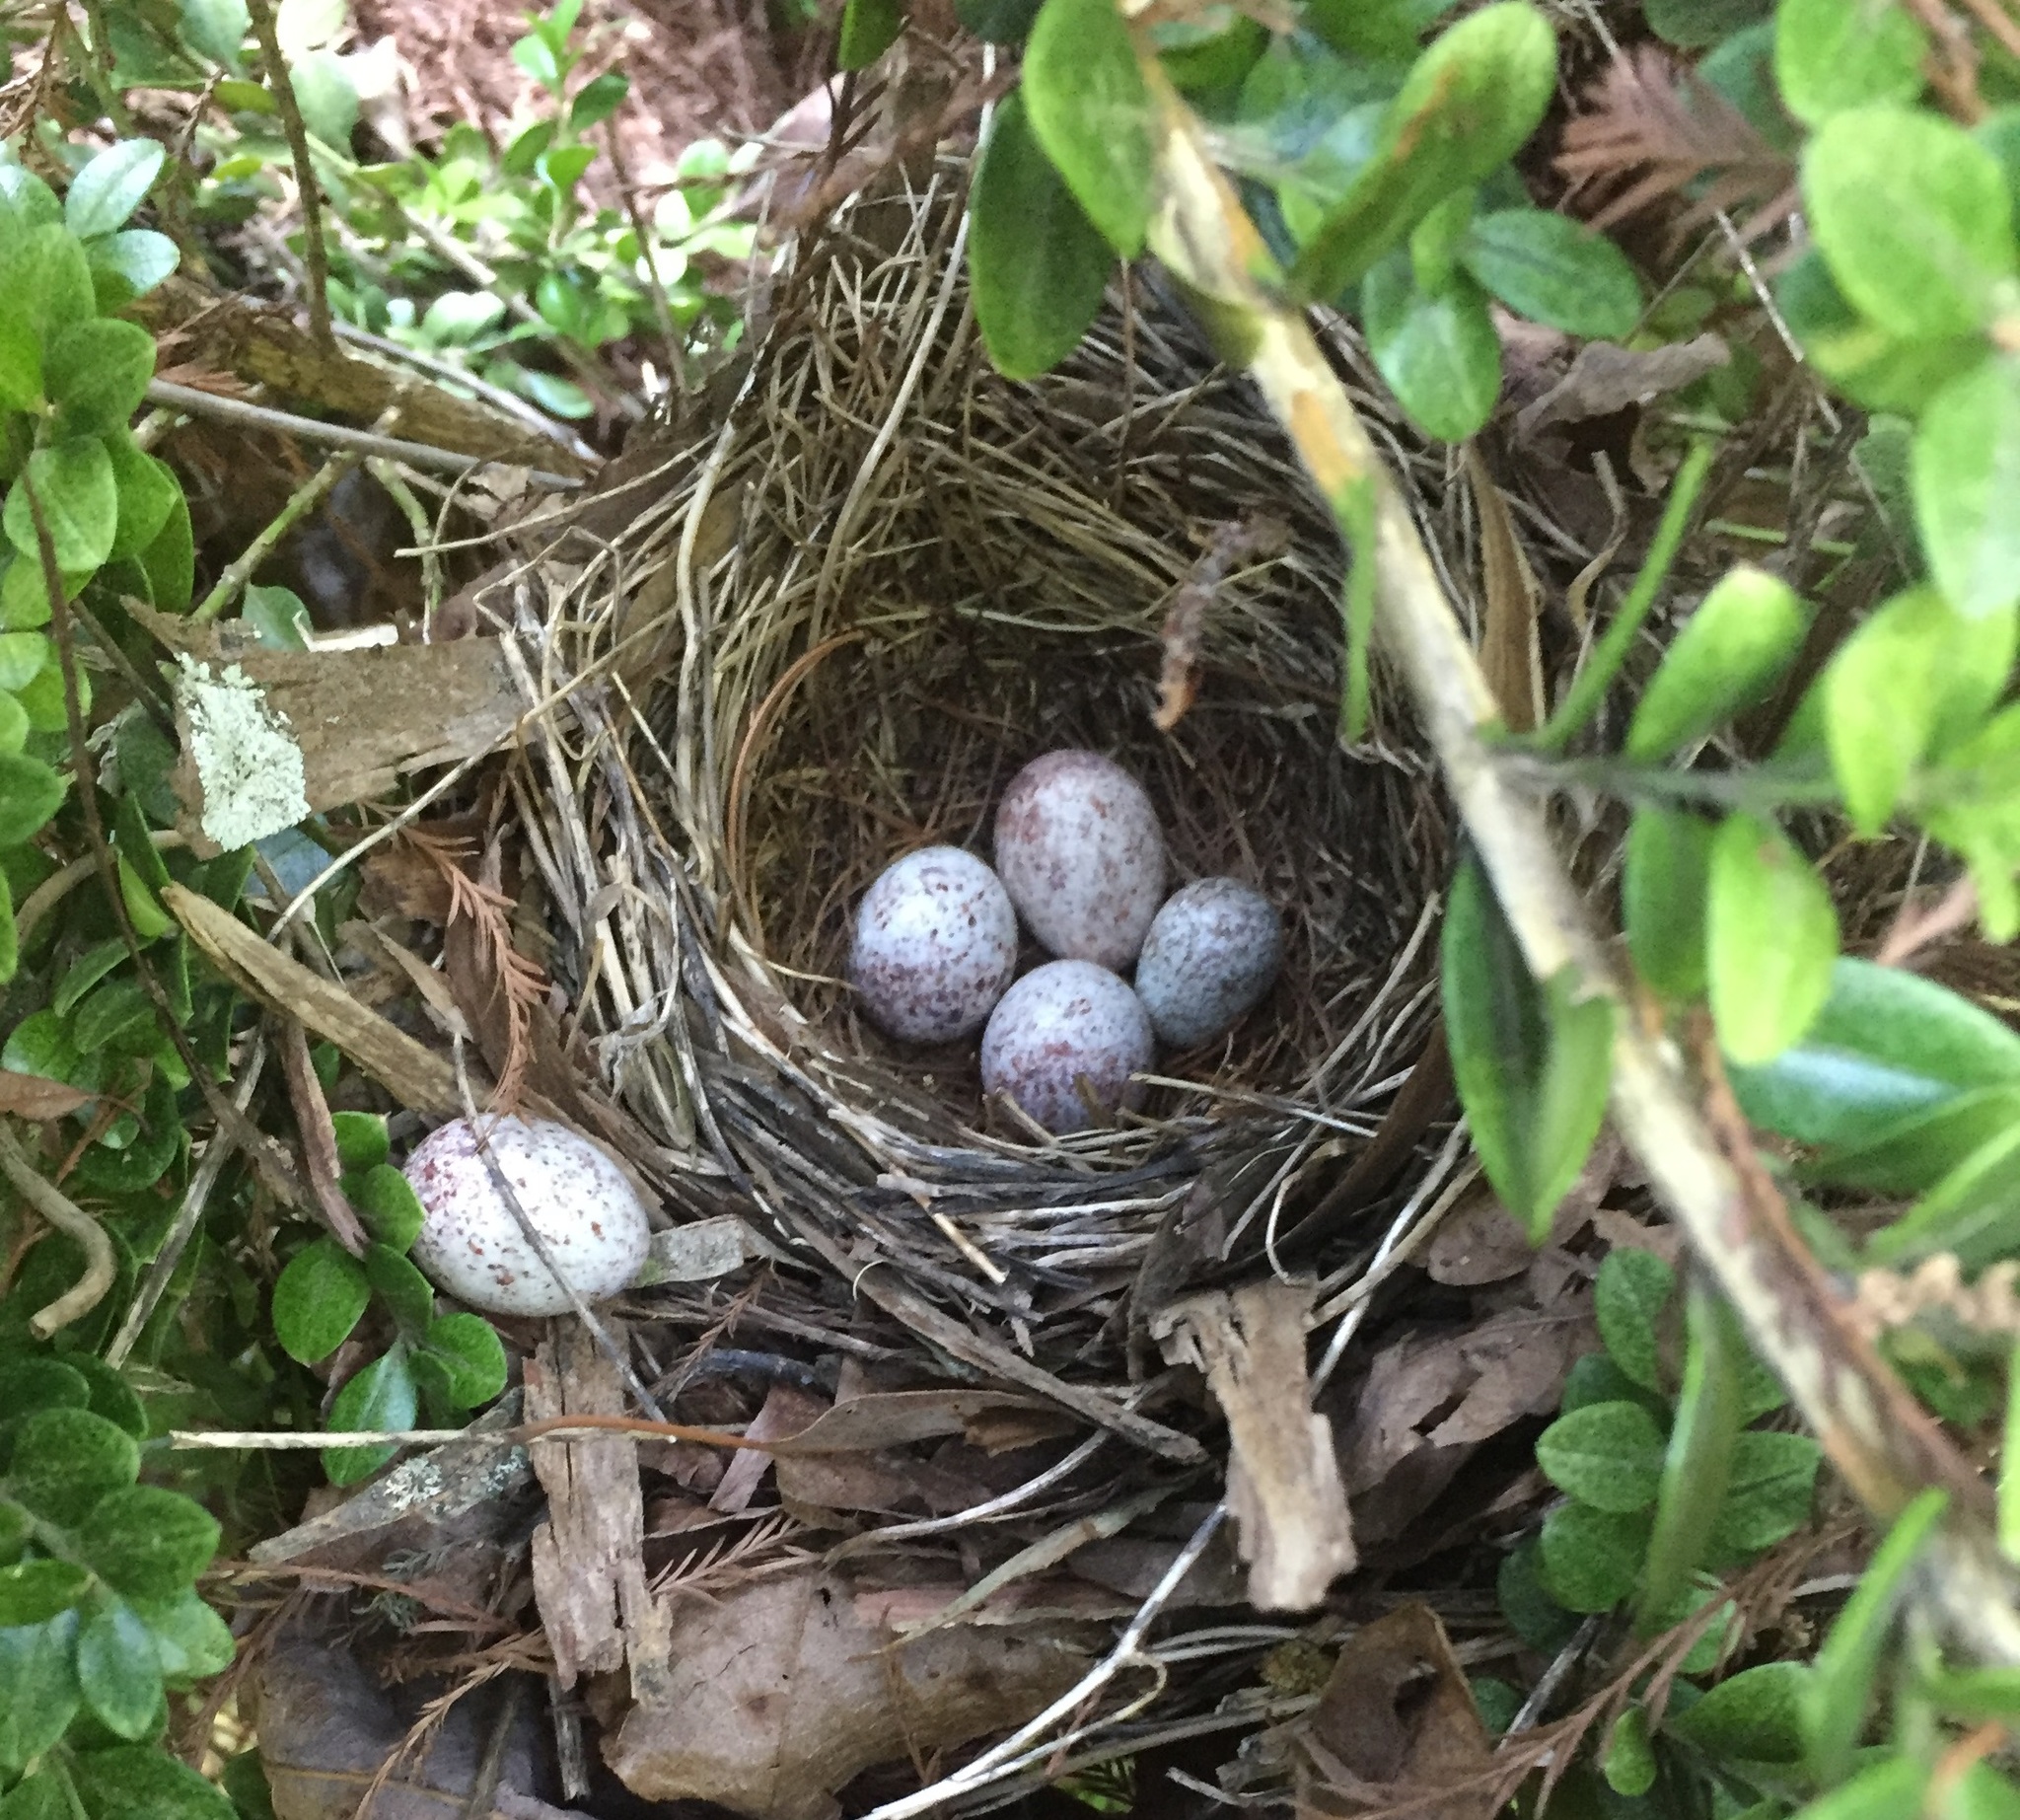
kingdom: Animalia
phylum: Chordata
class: Aves
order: Passeriformes
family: Icteridae
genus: Molothrus
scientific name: Molothrus ater
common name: Brown-headed cowbird
